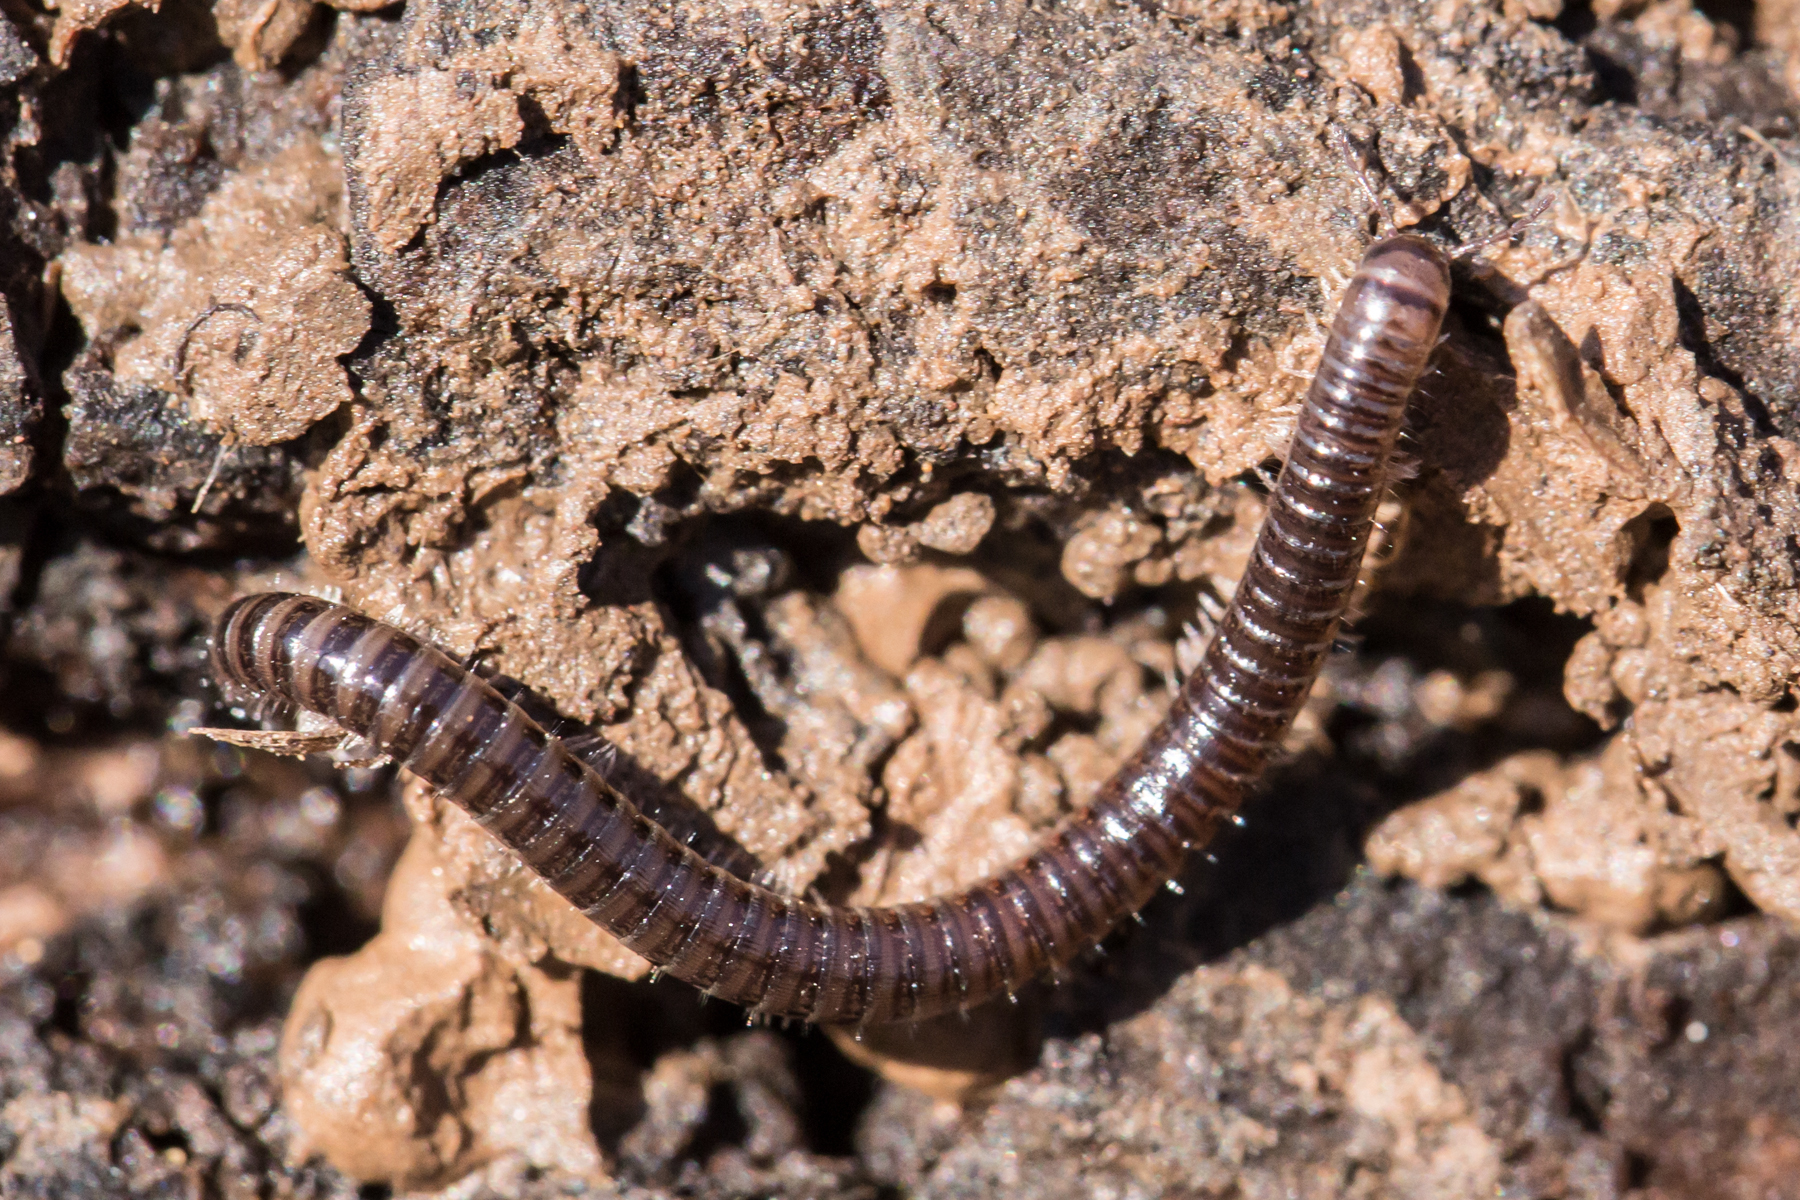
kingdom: Animalia
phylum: Arthropoda
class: Diplopoda
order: Julida
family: Julidae
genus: Ophyiulus
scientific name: Ophyiulus pilosus
